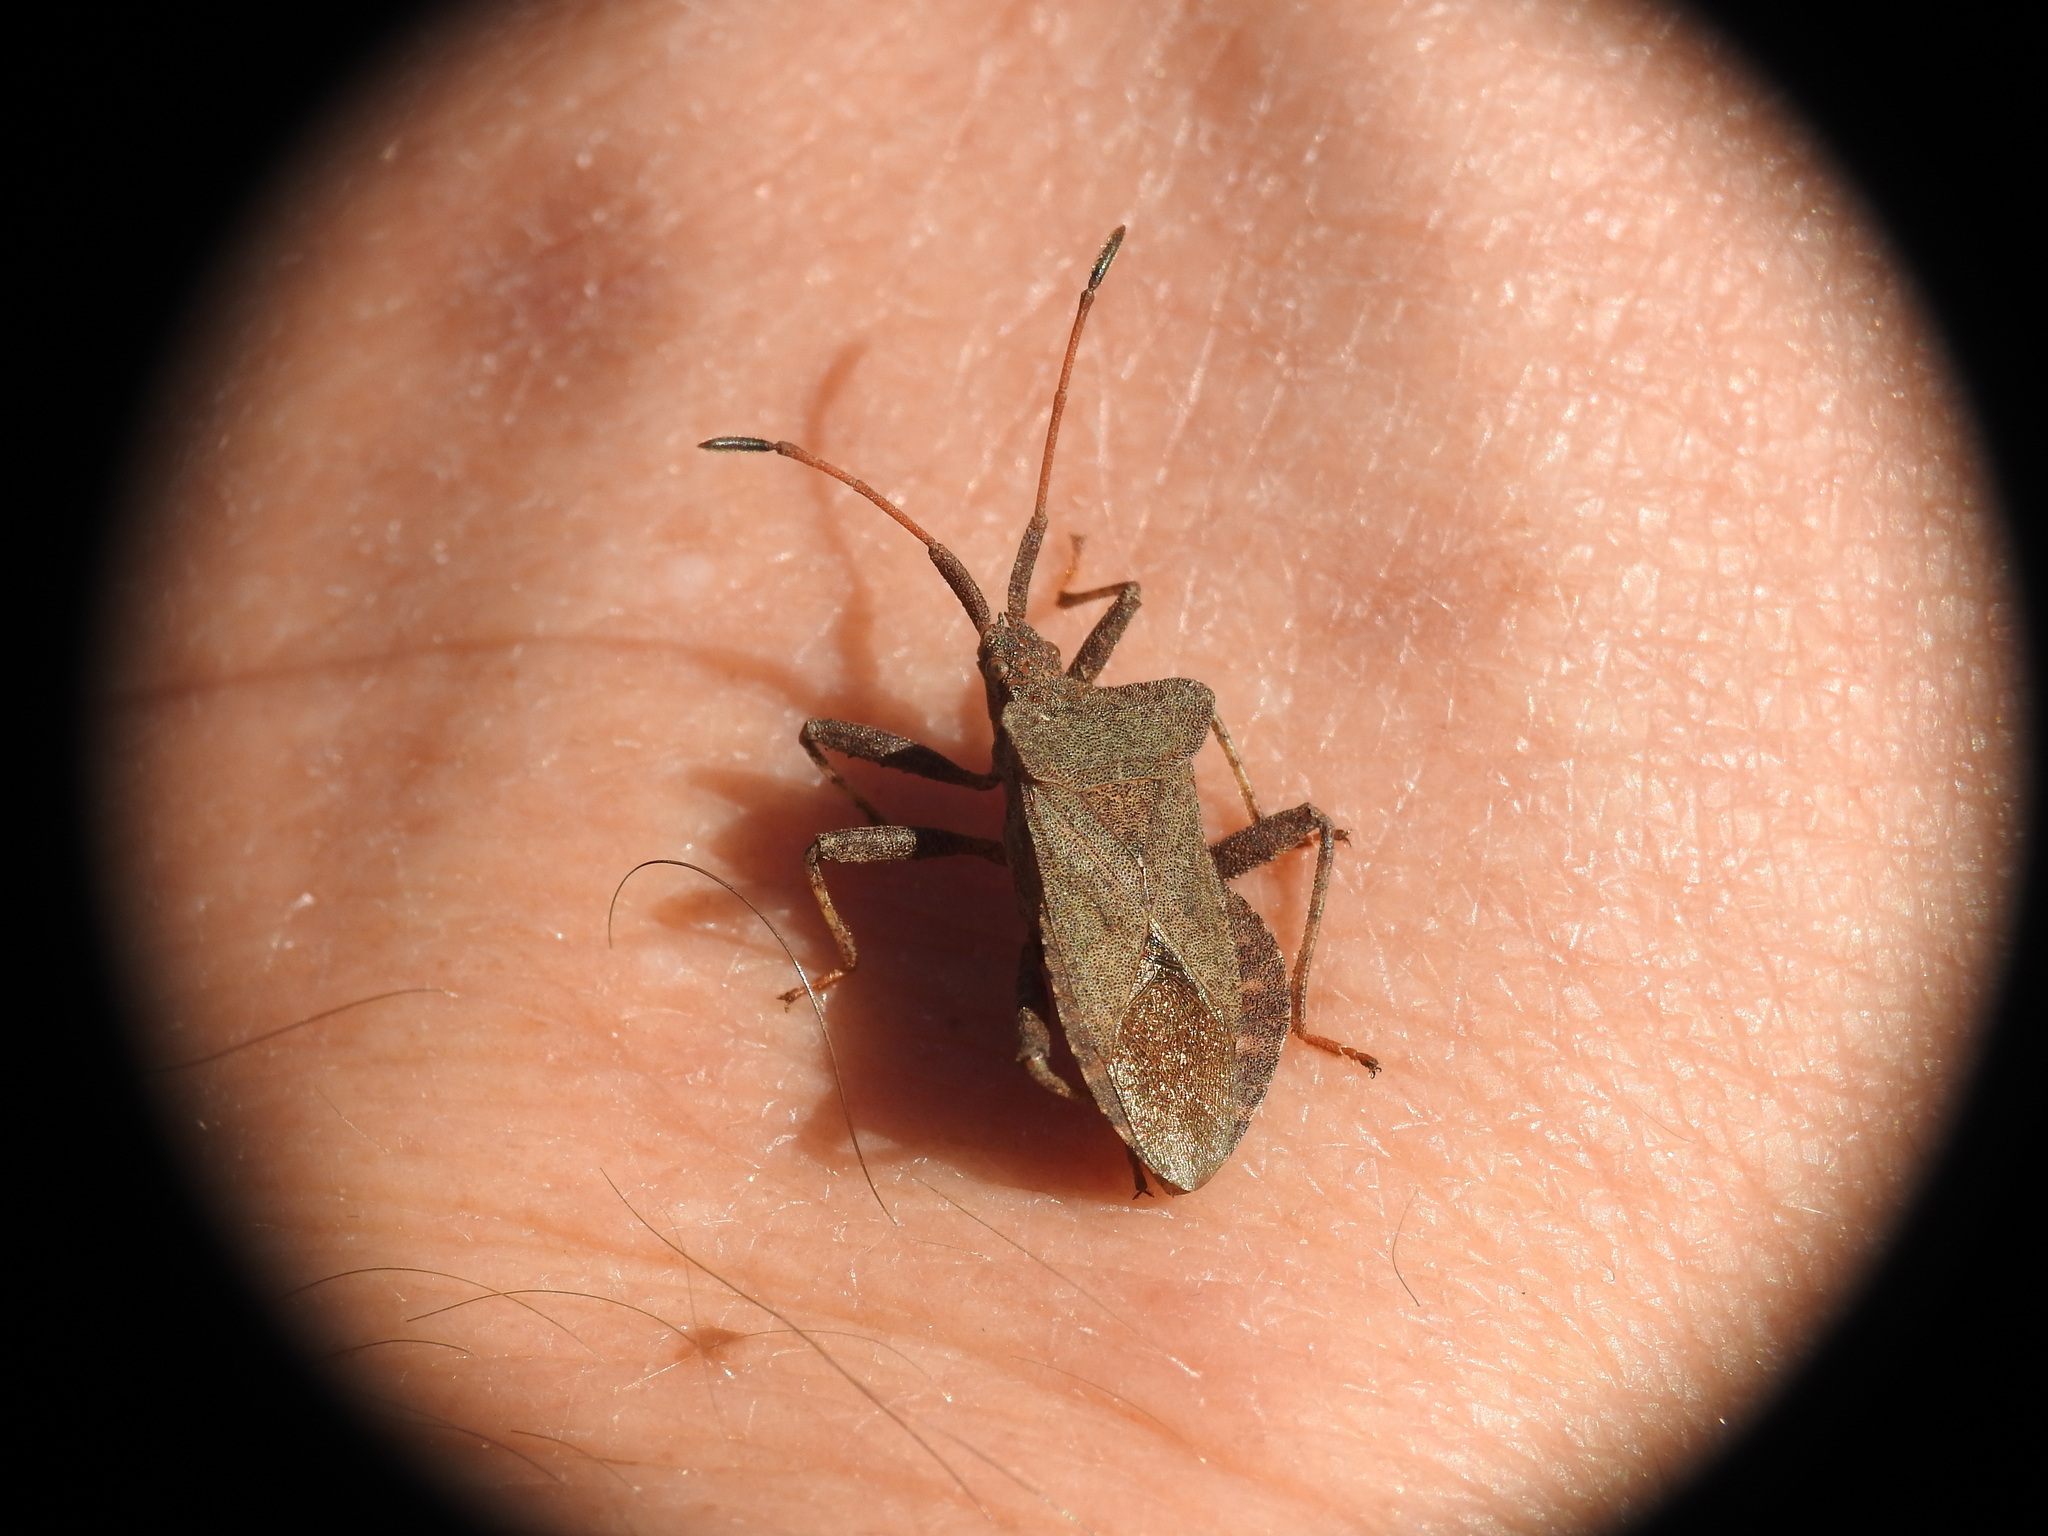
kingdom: Animalia
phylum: Arthropoda
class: Insecta
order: Hemiptera
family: Coreidae
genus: Coreus
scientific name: Coreus marginatus
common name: Dock bug
